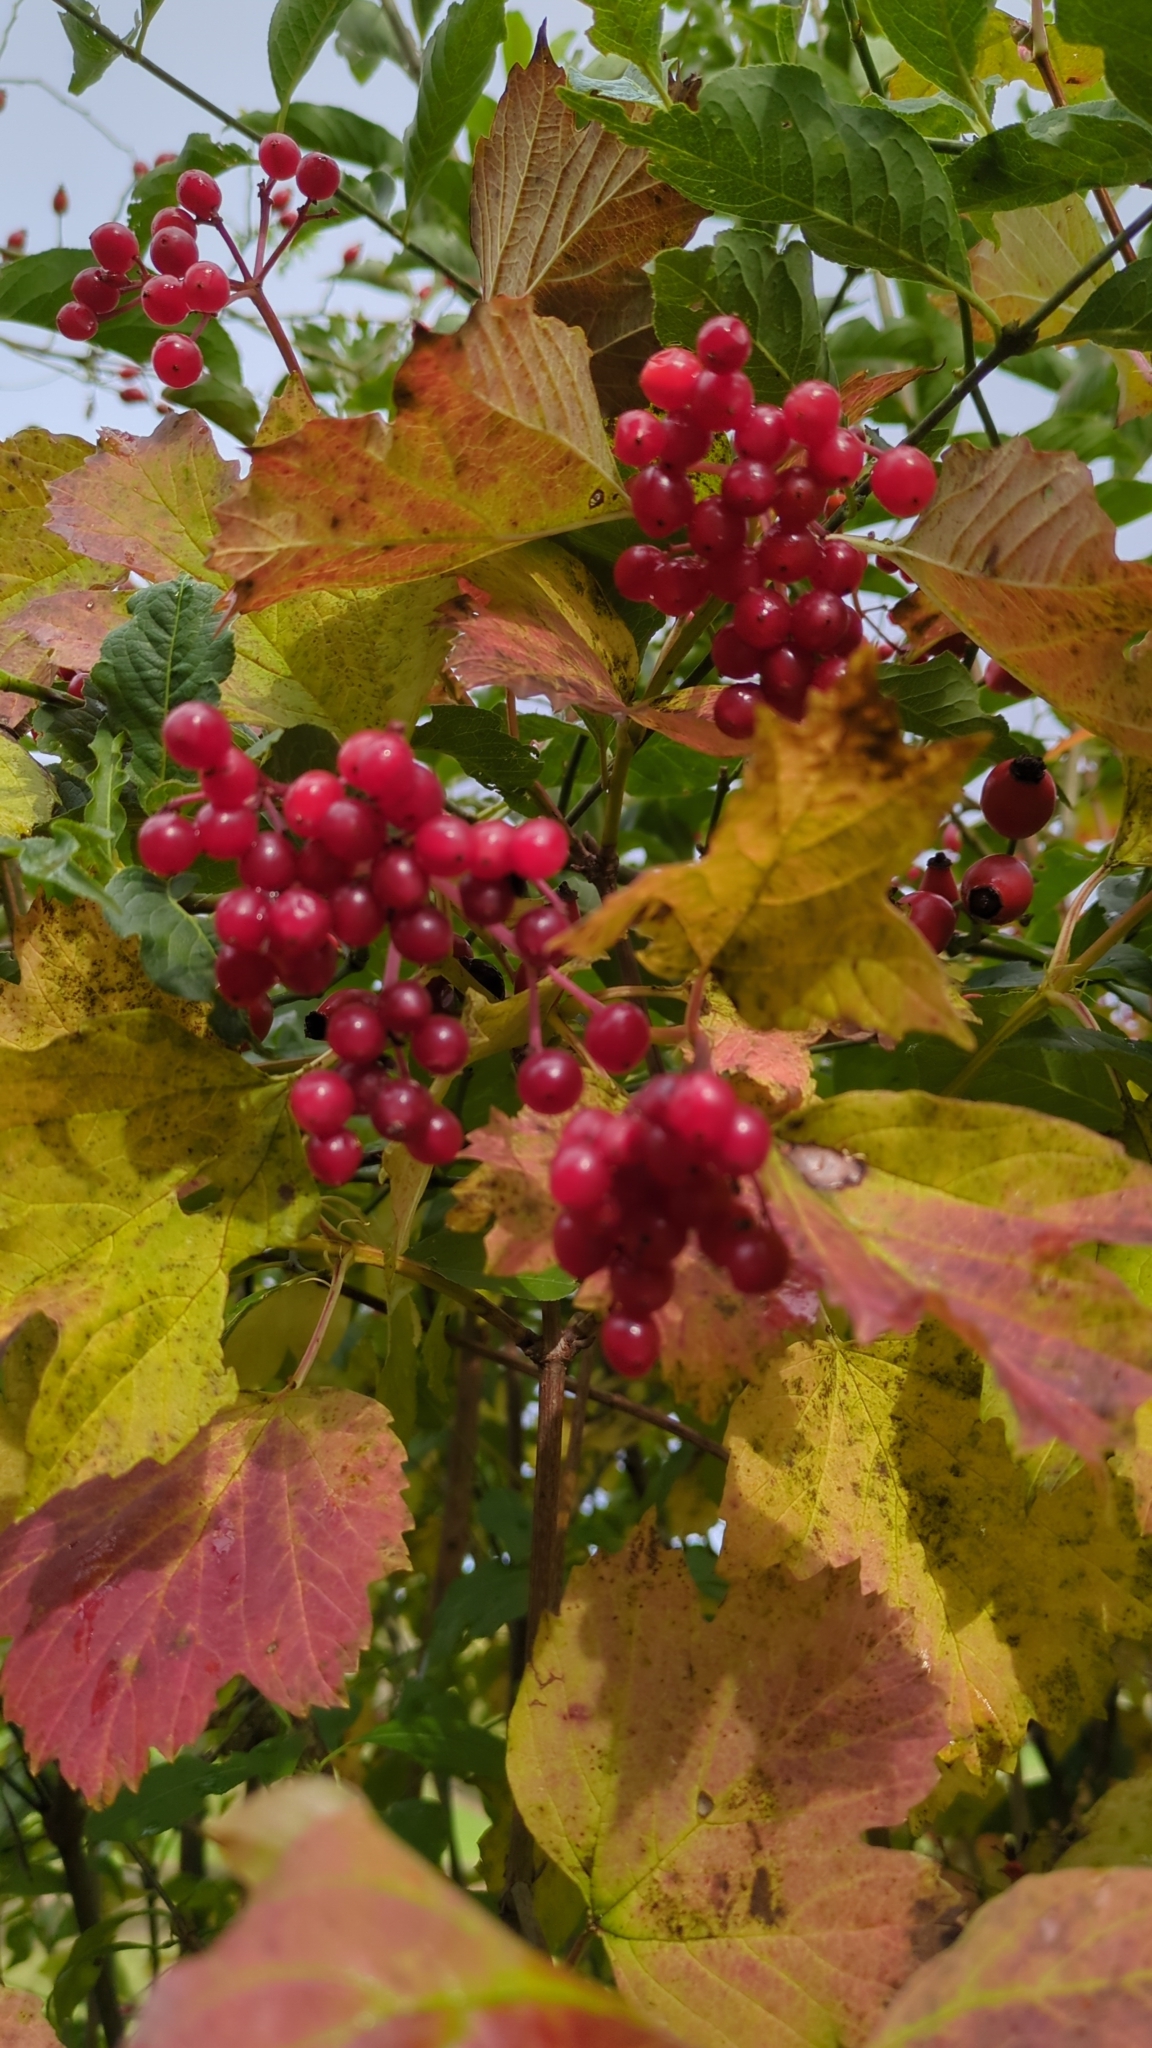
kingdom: Plantae
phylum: Tracheophyta
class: Magnoliopsida
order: Dipsacales
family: Viburnaceae
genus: Viburnum
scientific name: Viburnum opulus
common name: Guelder-rose
